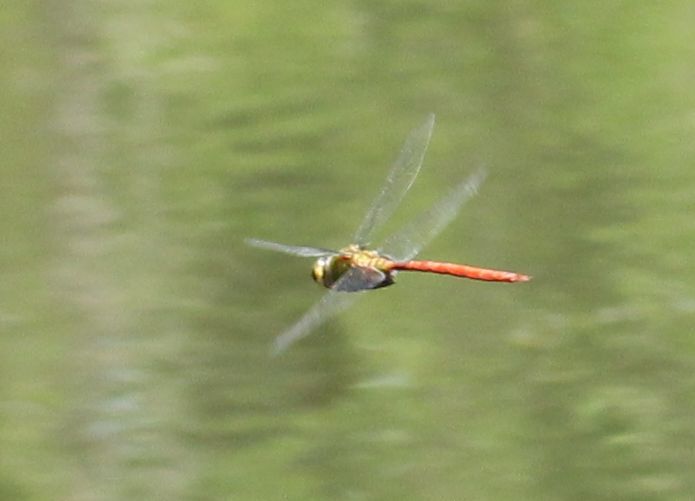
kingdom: Animalia
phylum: Arthropoda
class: Insecta
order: Odonata
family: Aeshnidae
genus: Anax
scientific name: Anax longipes
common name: Comet darner
